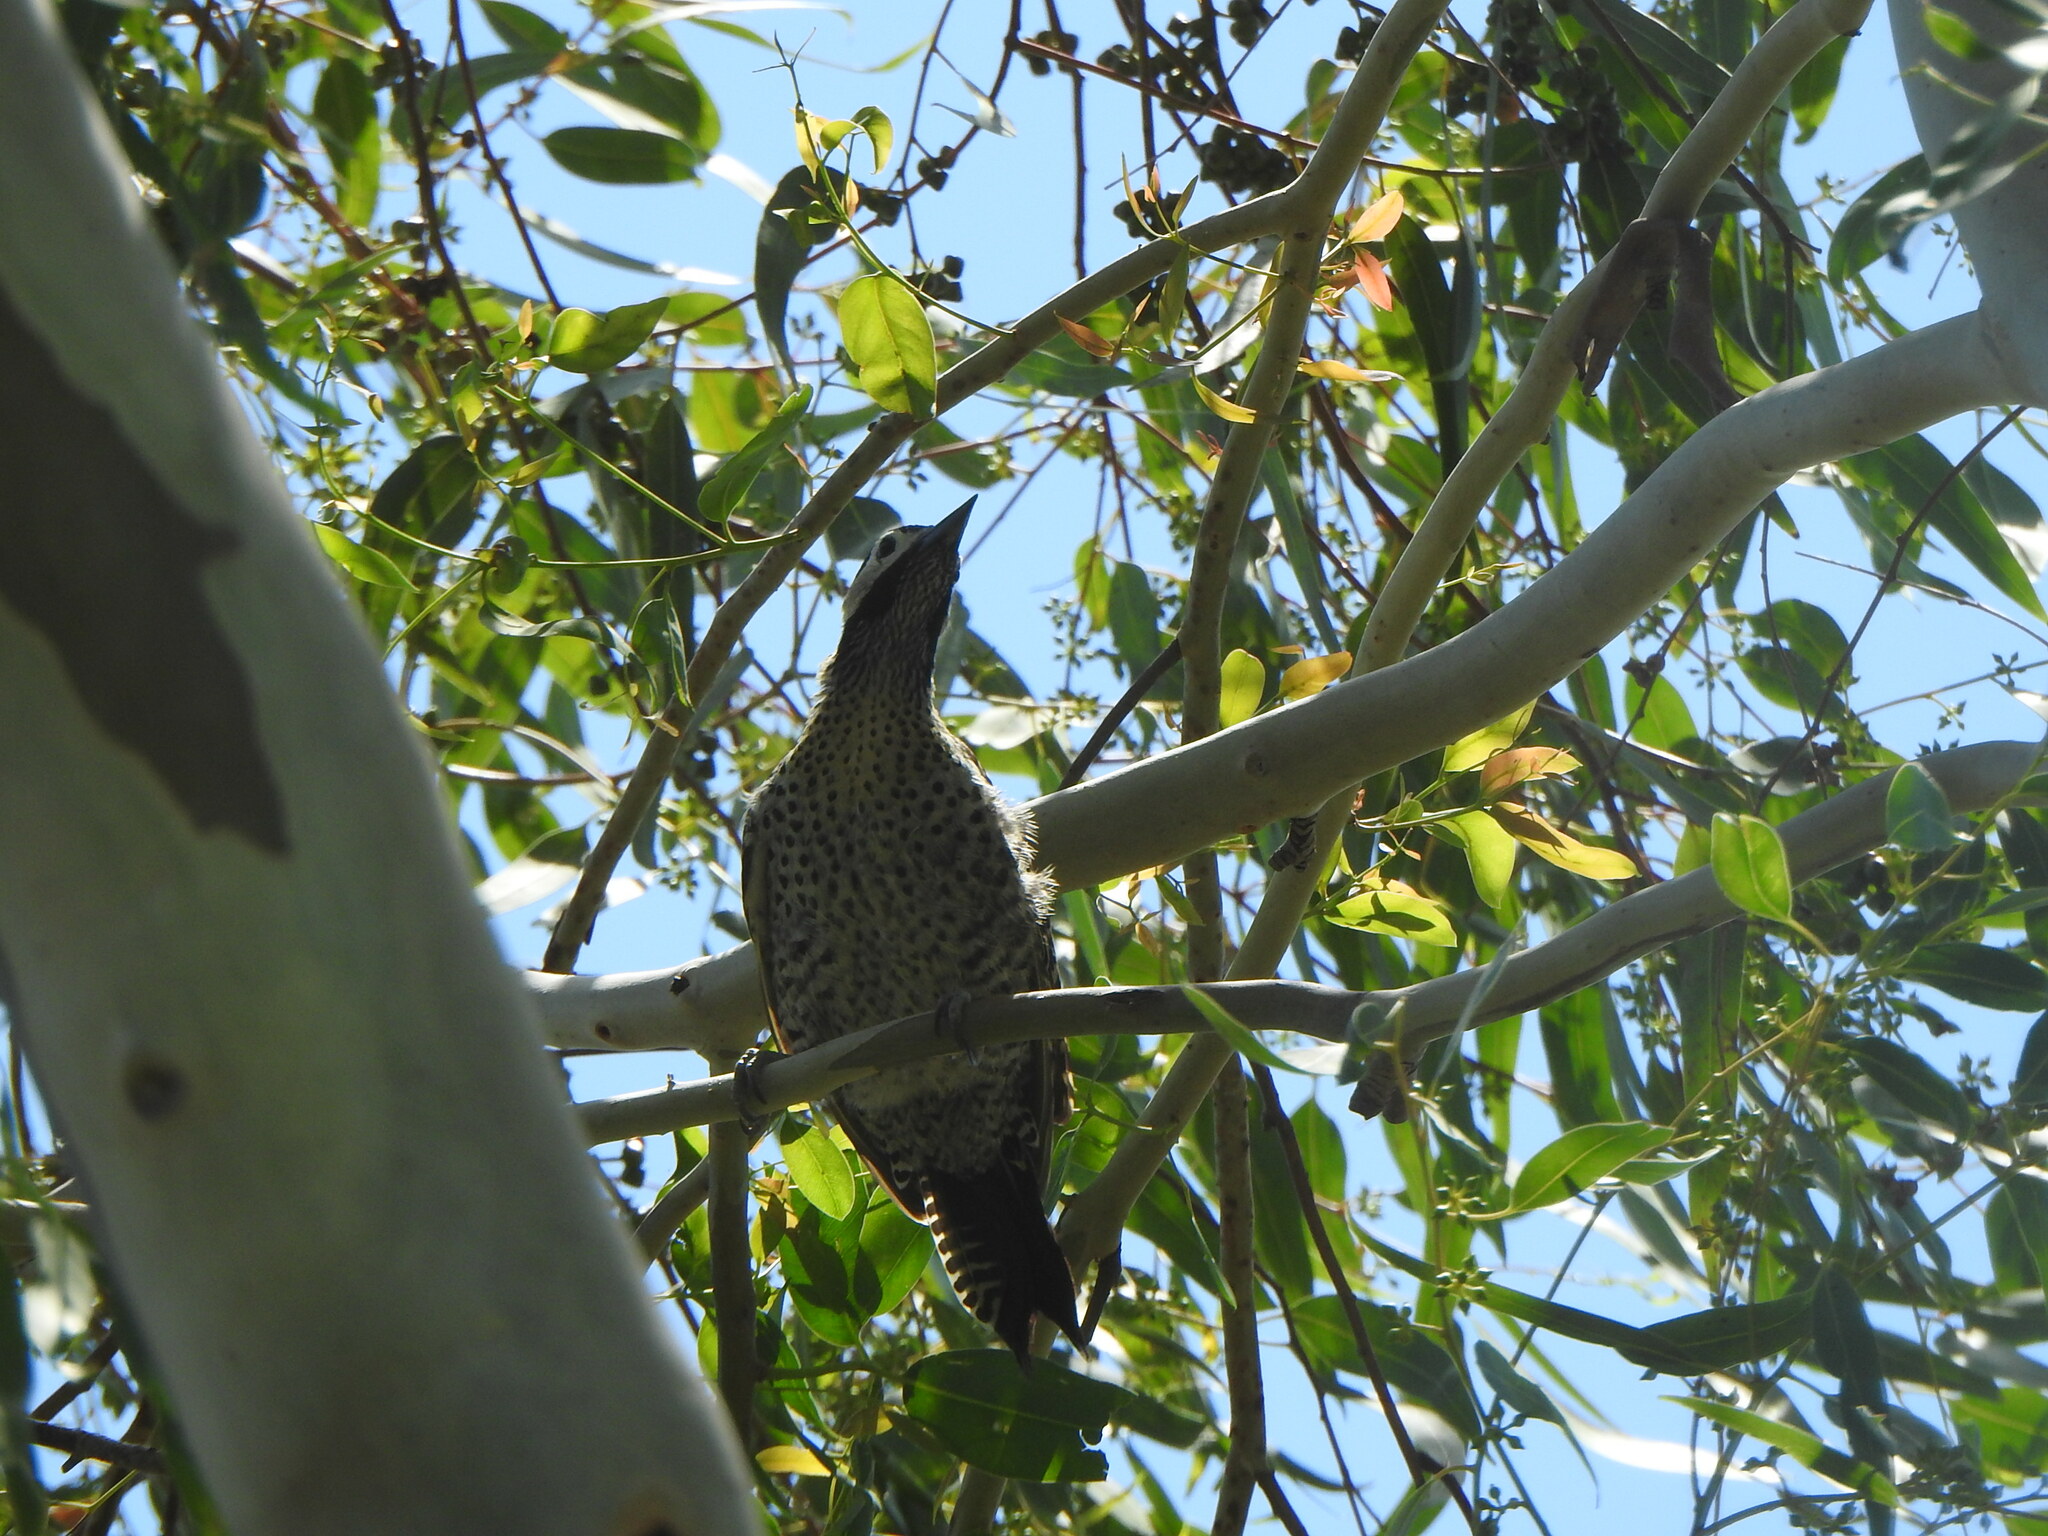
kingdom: Animalia
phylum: Chordata
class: Aves
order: Piciformes
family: Picidae
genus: Colaptes
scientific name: Colaptes melanochloros
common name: Green-barred woodpecker
